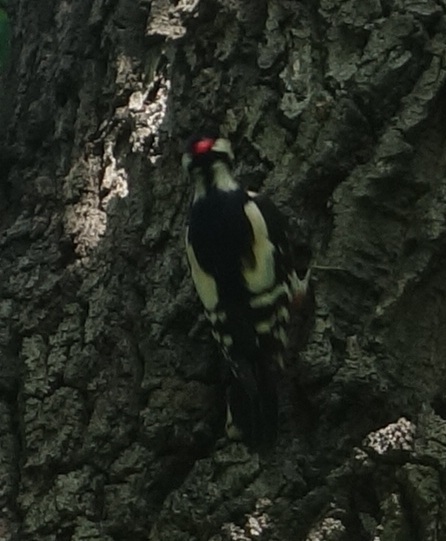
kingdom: Animalia
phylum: Chordata
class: Aves
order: Piciformes
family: Picidae
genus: Dendrocopos
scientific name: Dendrocopos major
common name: Great spotted woodpecker
